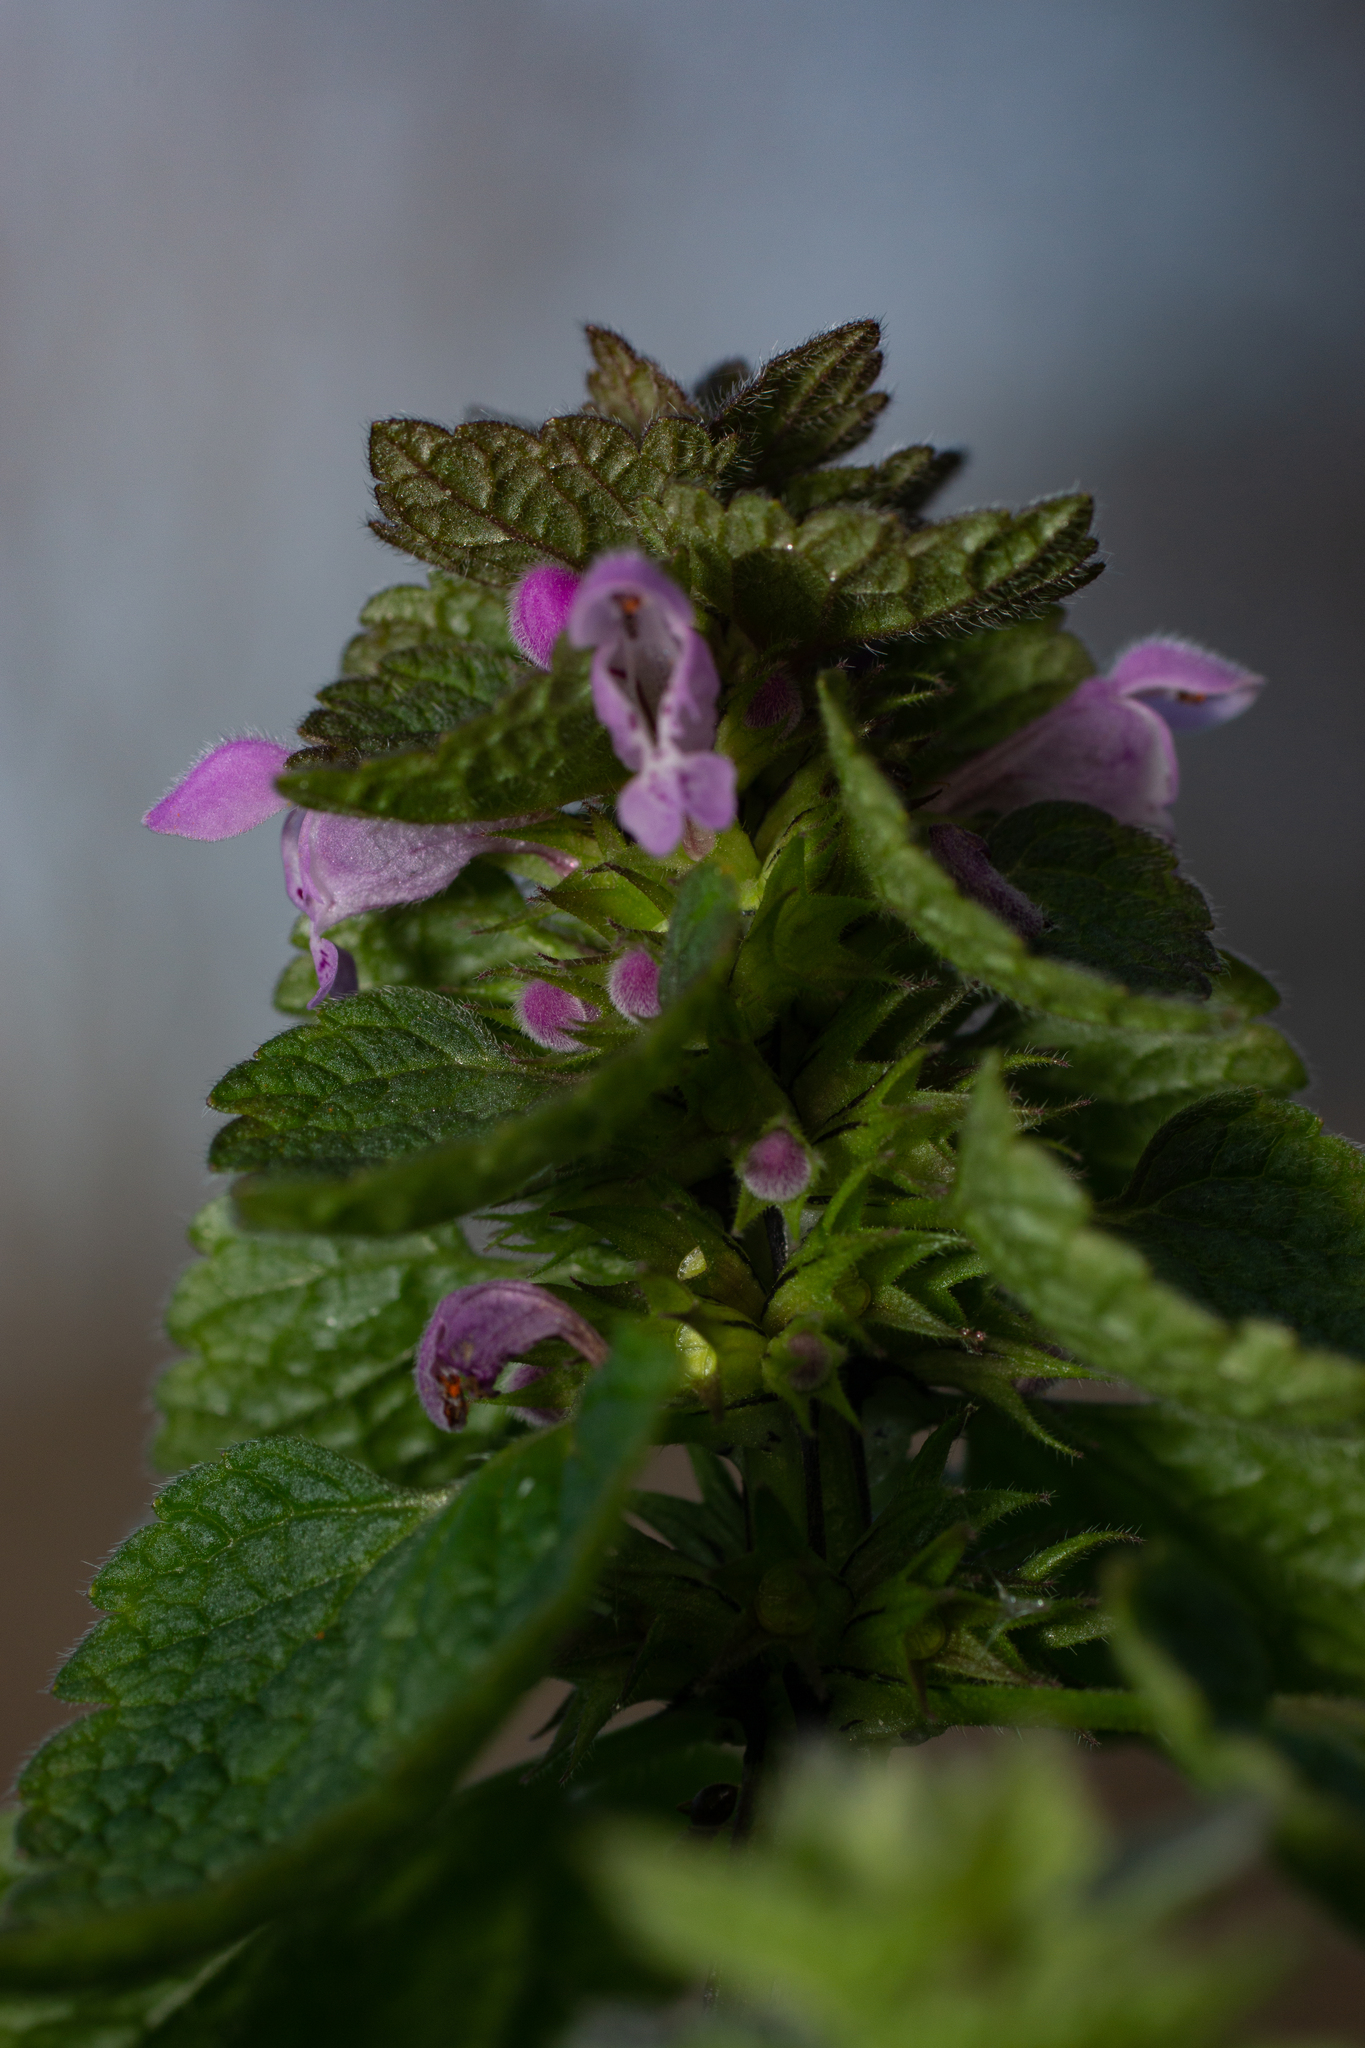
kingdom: Plantae
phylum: Tracheophyta
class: Magnoliopsida
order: Lamiales
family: Lamiaceae
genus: Lamium
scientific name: Lamium purpureum
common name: Red dead-nettle
